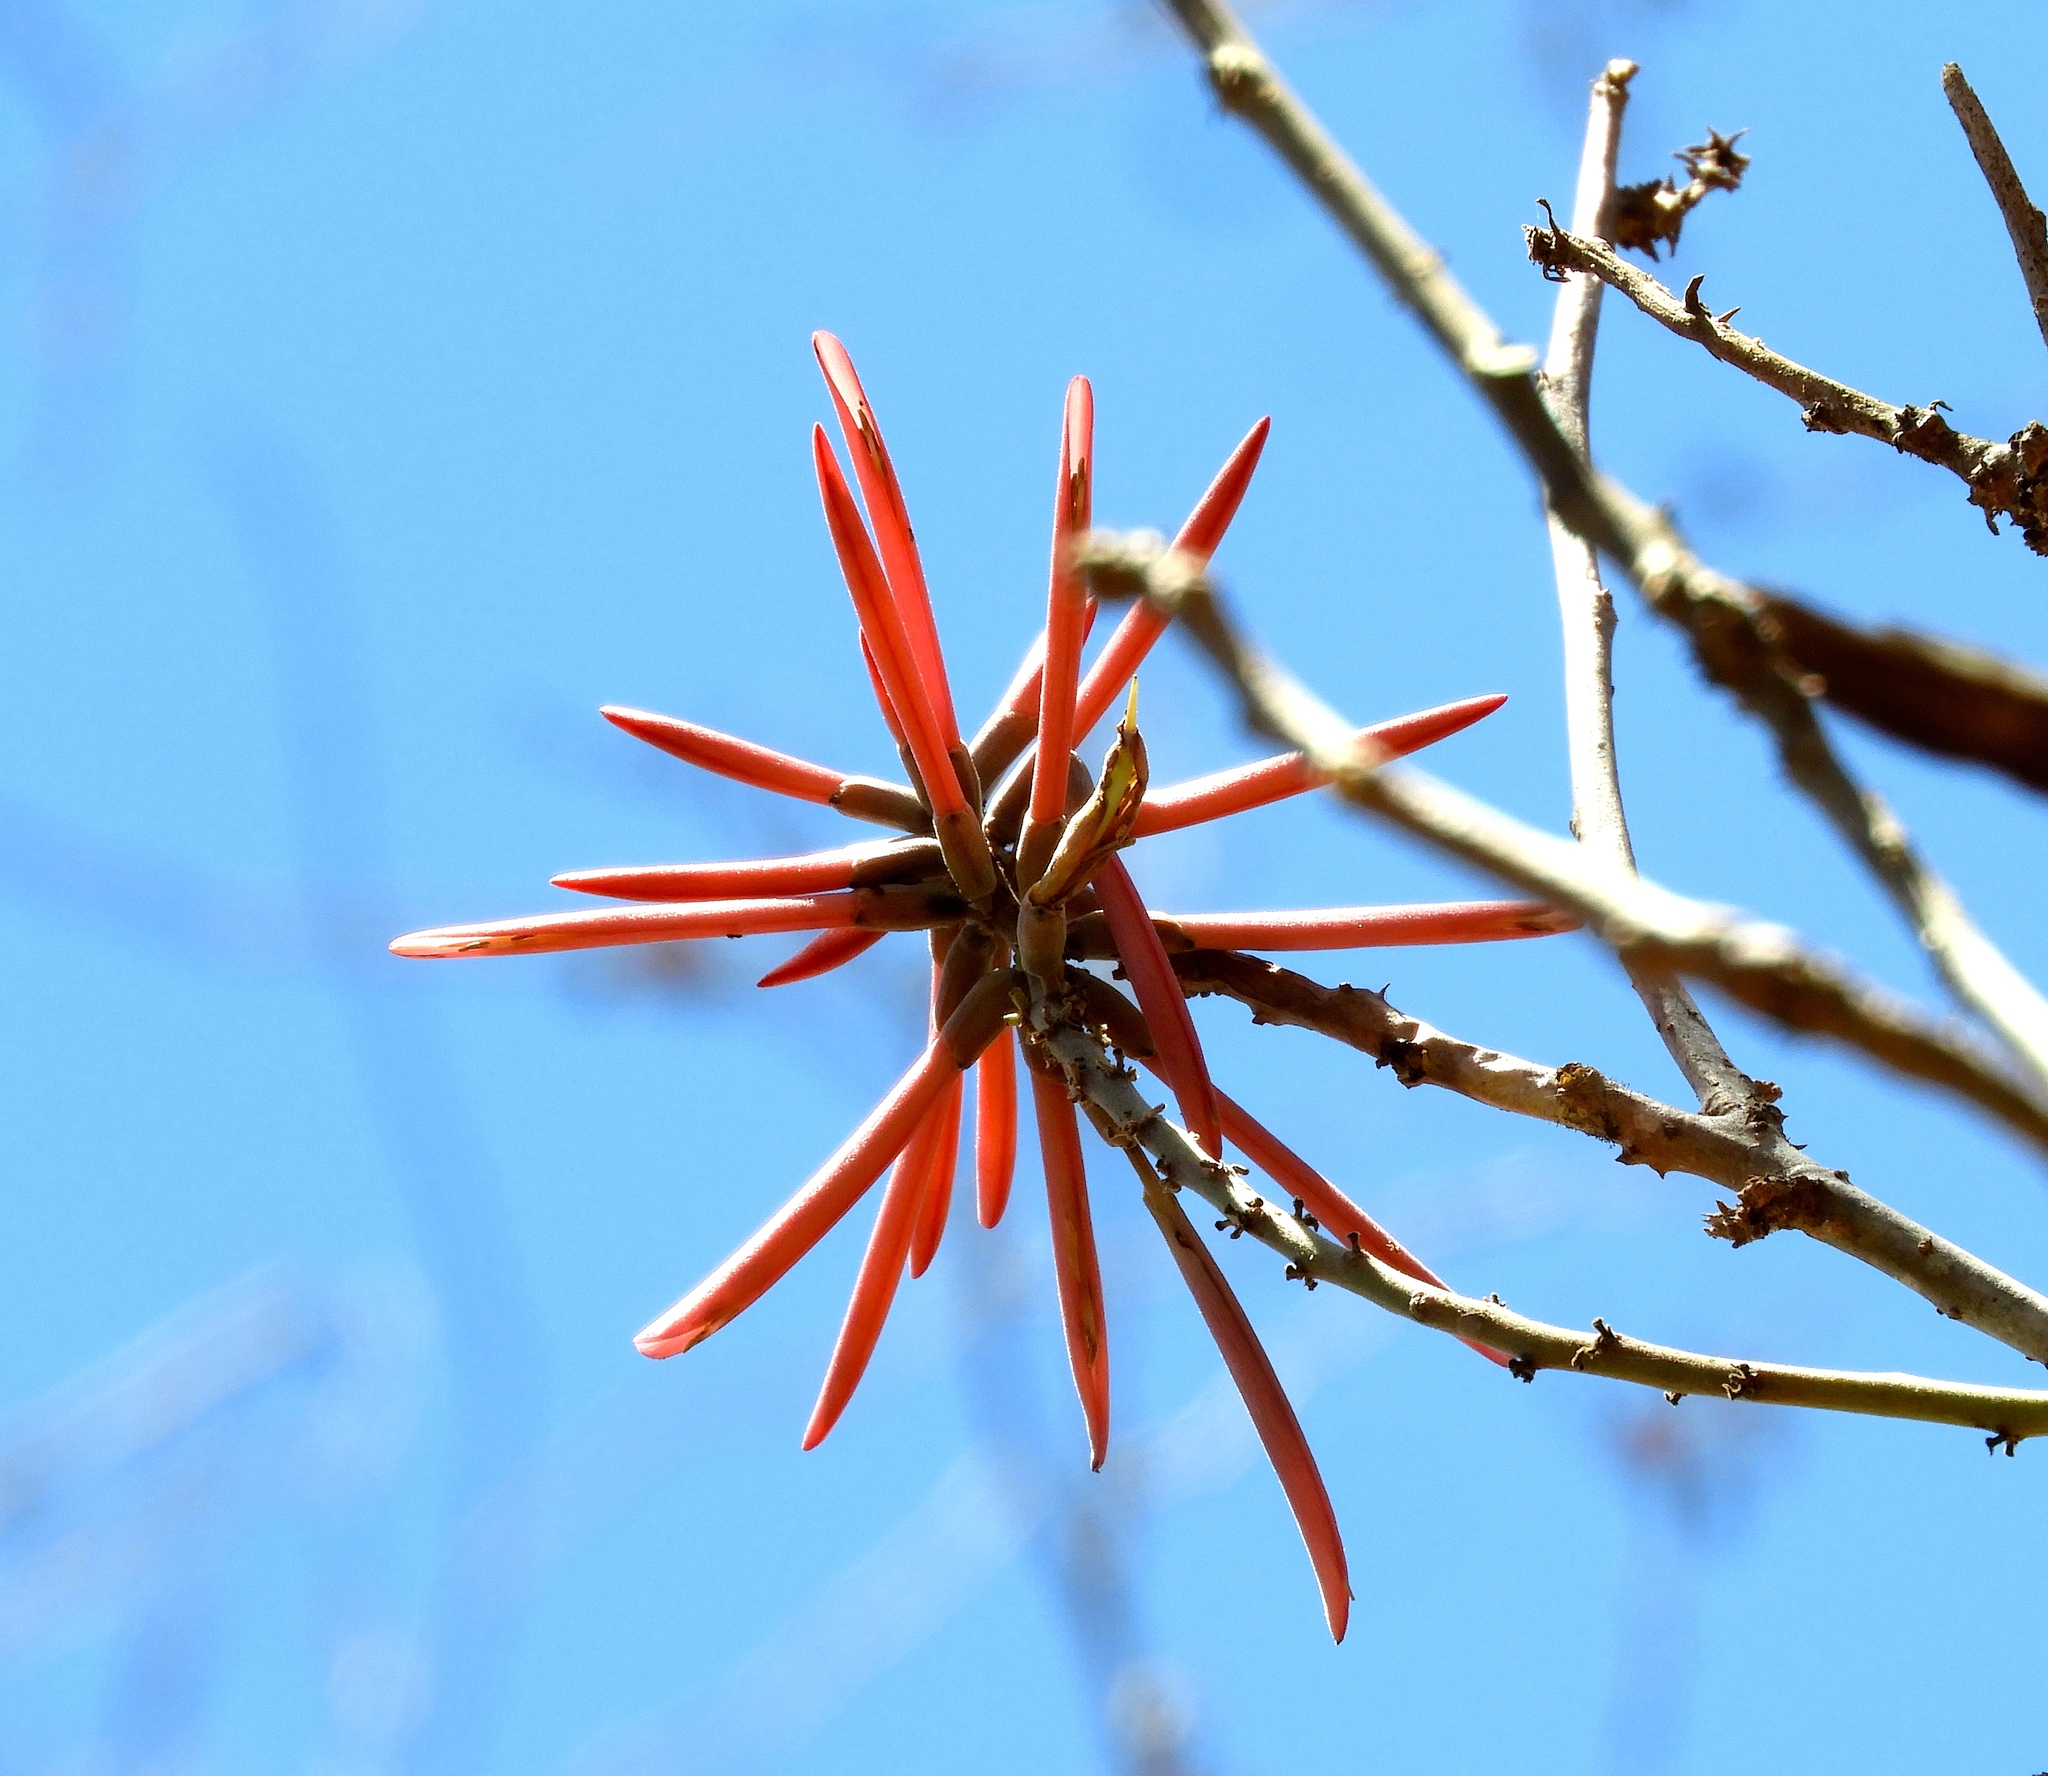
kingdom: Plantae
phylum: Tracheophyta
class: Magnoliopsida
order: Fabales
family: Fabaceae
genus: Erythrina
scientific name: Erythrina
